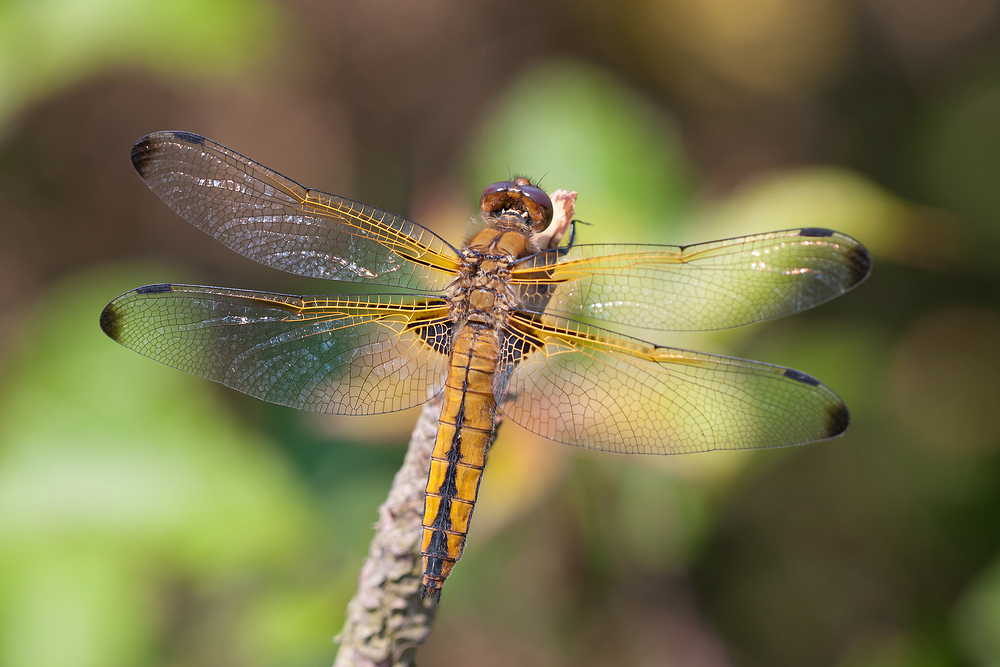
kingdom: Animalia
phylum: Arthropoda
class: Insecta
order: Odonata
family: Libellulidae
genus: Libellula
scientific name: Libellula fulva
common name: Blue chaser
